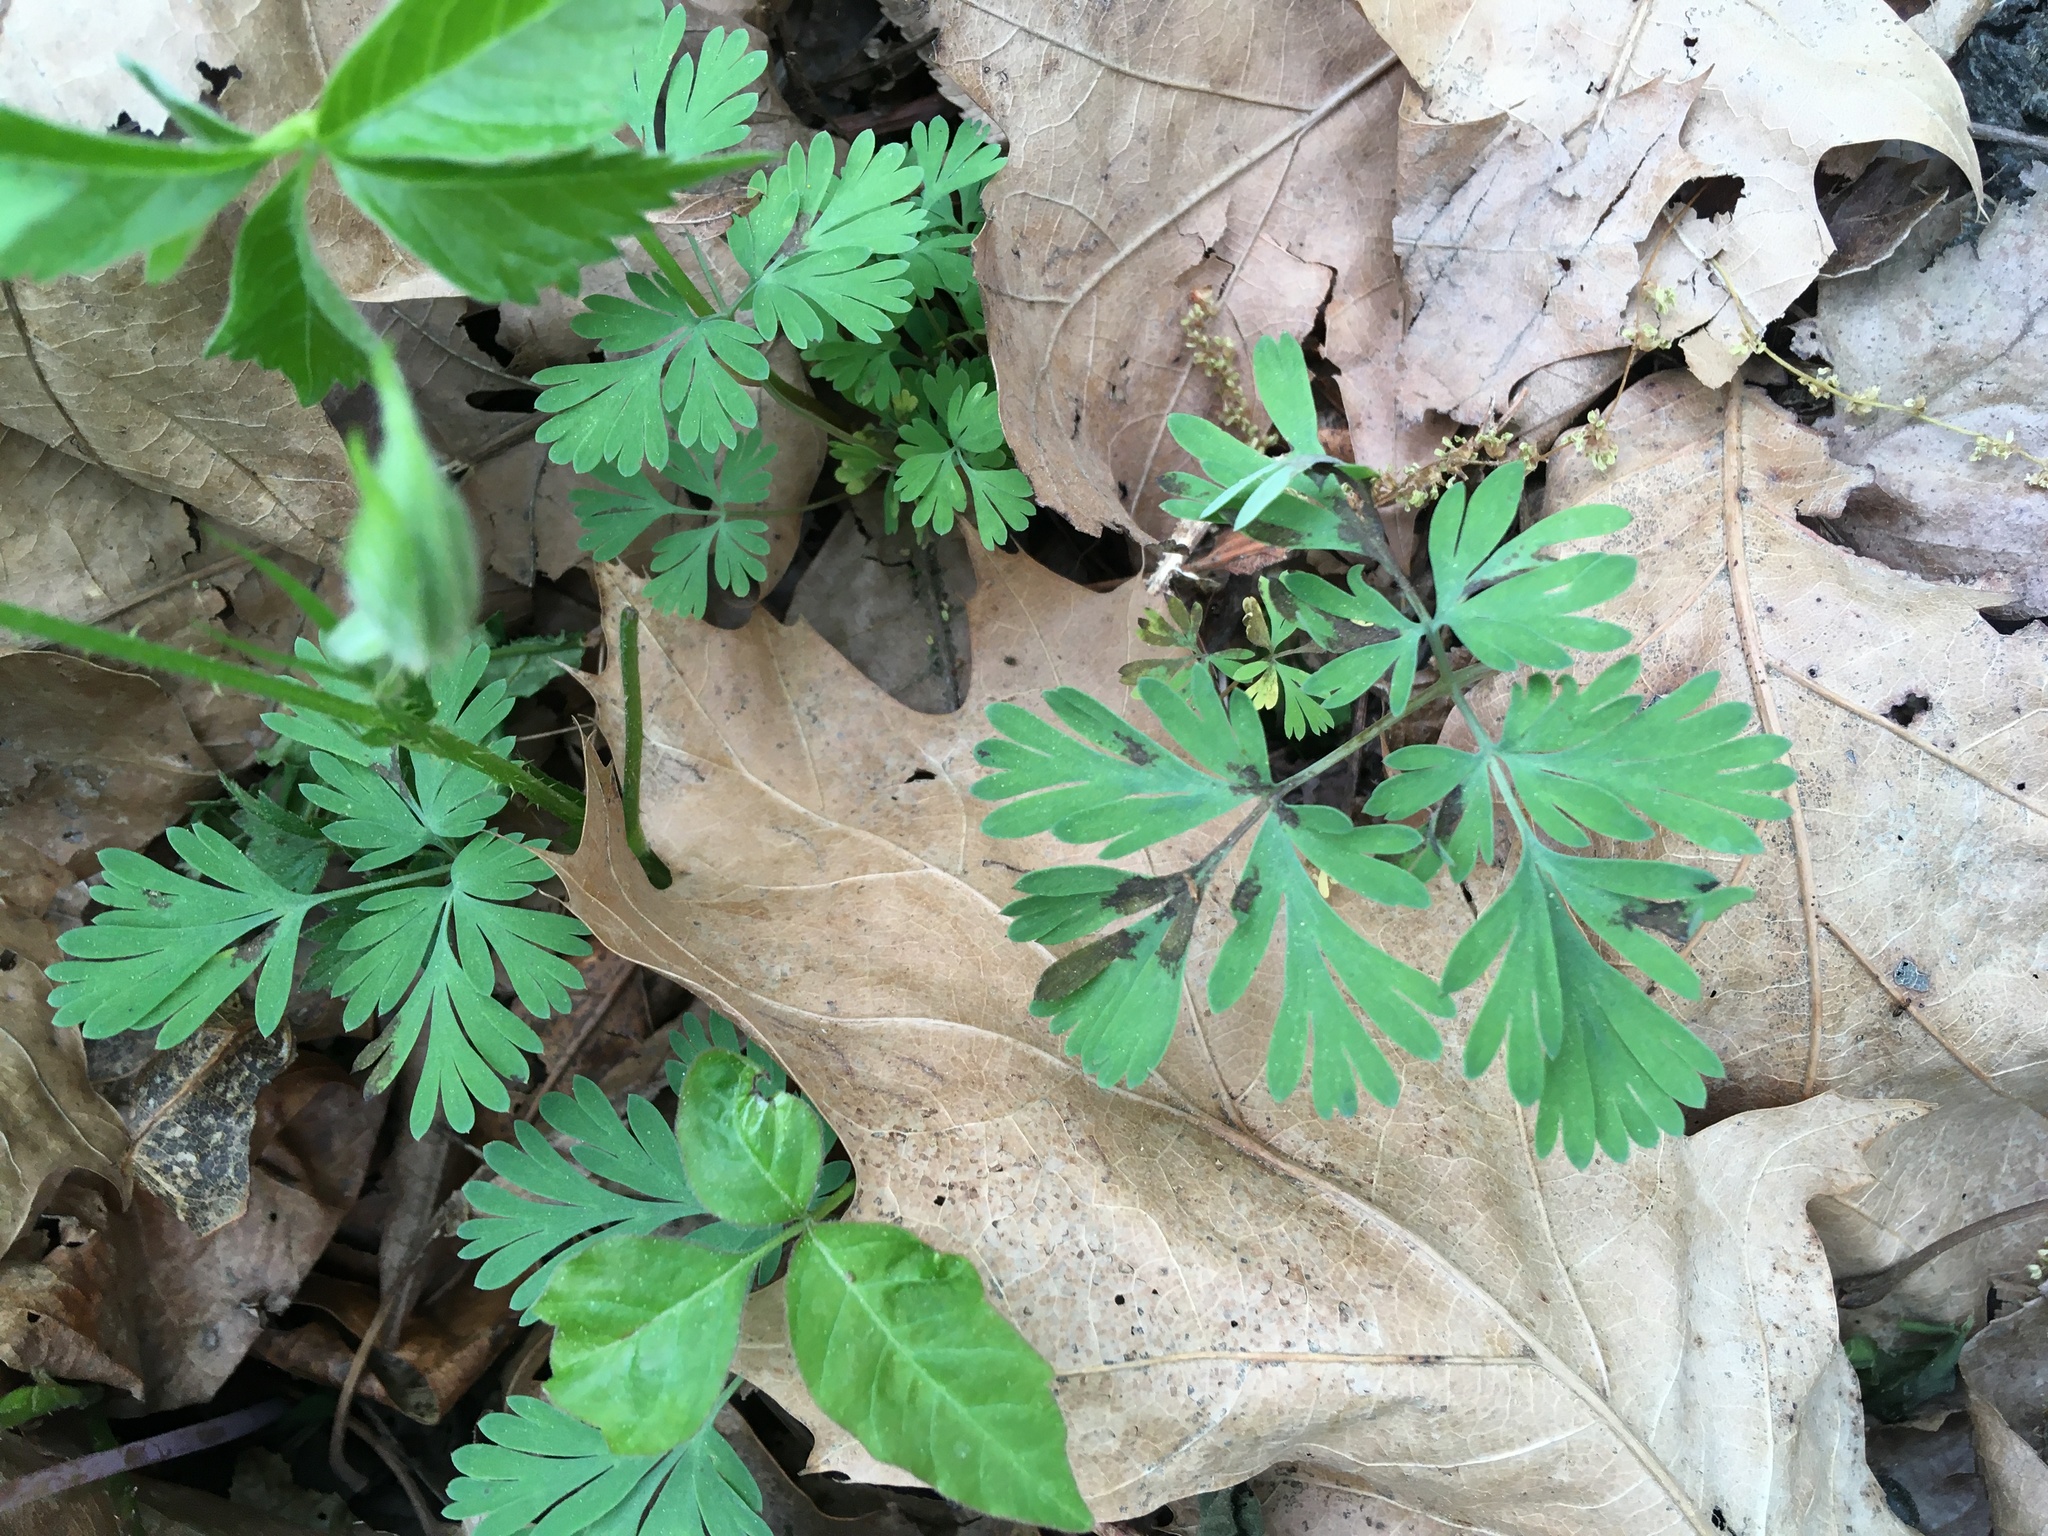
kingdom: Plantae
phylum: Tracheophyta
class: Magnoliopsida
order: Ranunculales
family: Papaveraceae
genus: Dicentra
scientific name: Dicentra cucullaria
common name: Dutchman's breeches
